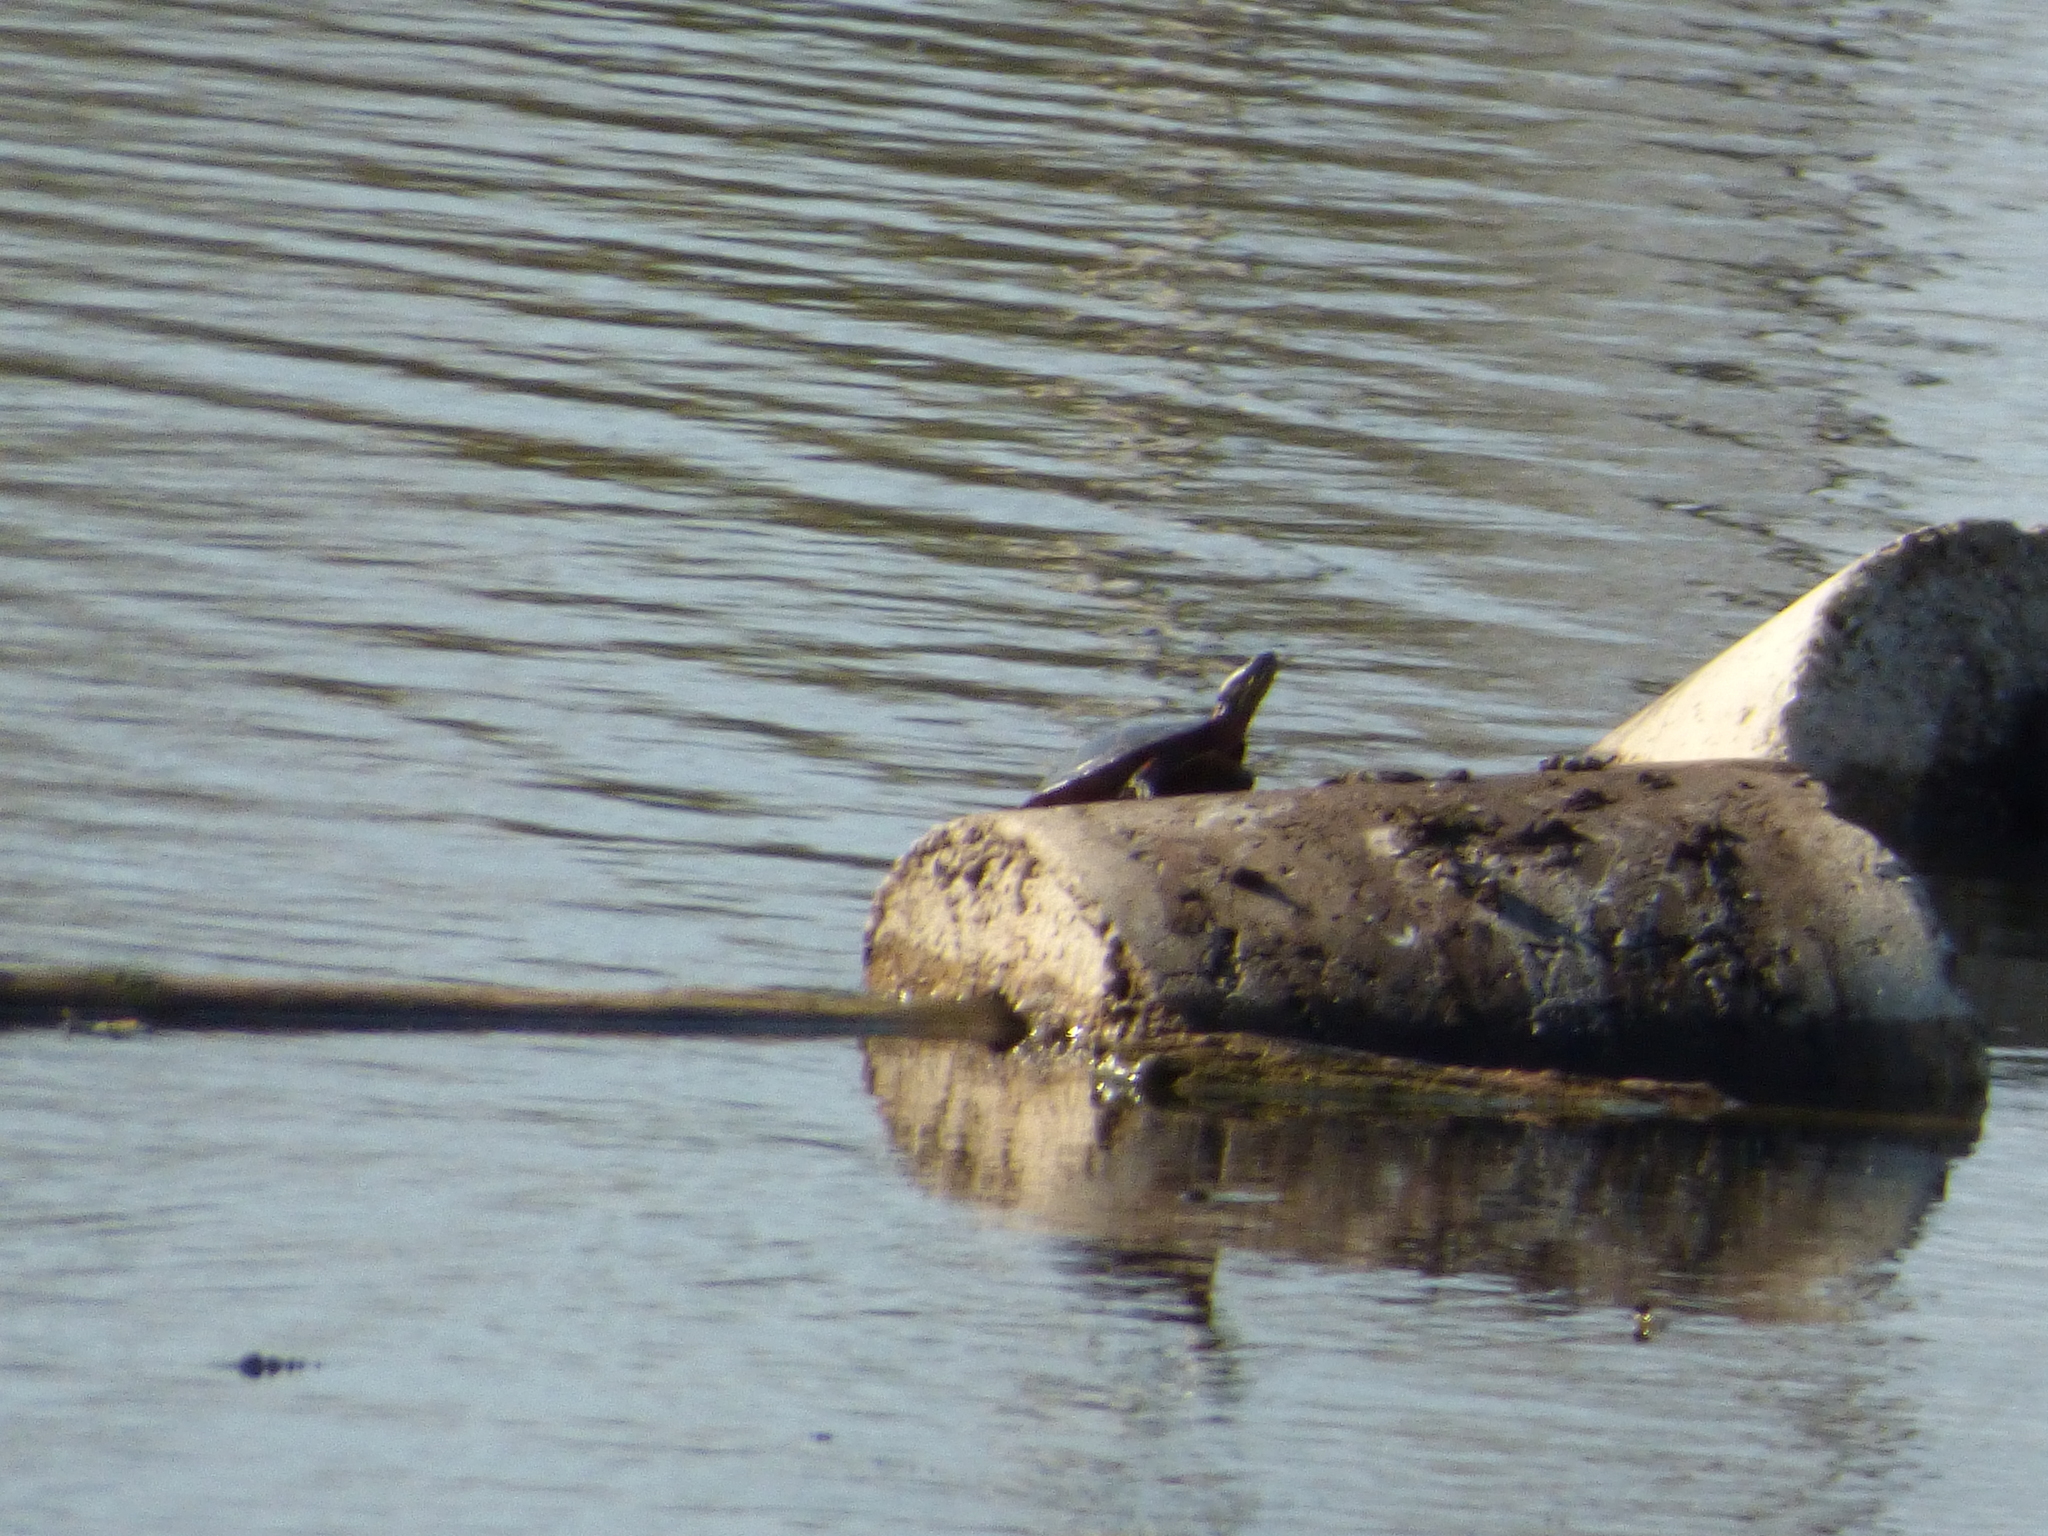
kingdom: Animalia
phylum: Chordata
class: Testudines
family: Emydidae
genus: Chrysemys
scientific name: Chrysemys picta
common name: Painted turtle
